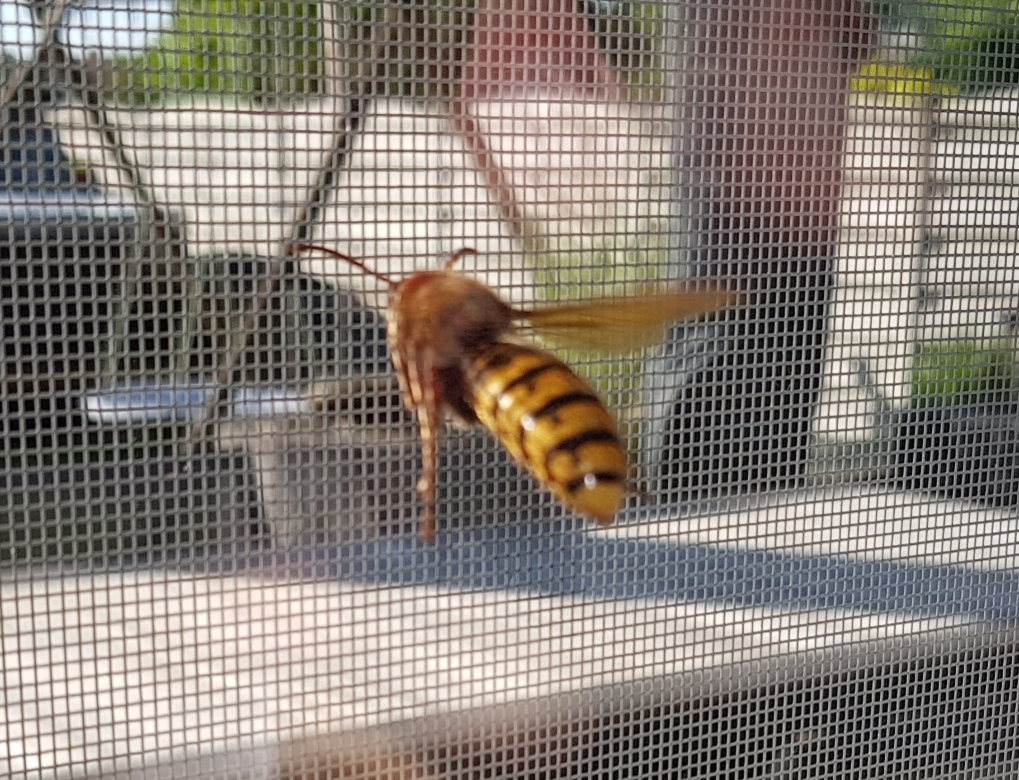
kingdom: Animalia
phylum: Arthropoda
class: Insecta
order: Hymenoptera
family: Vespidae
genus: Vespa
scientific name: Vespa crabro
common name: Hornet
